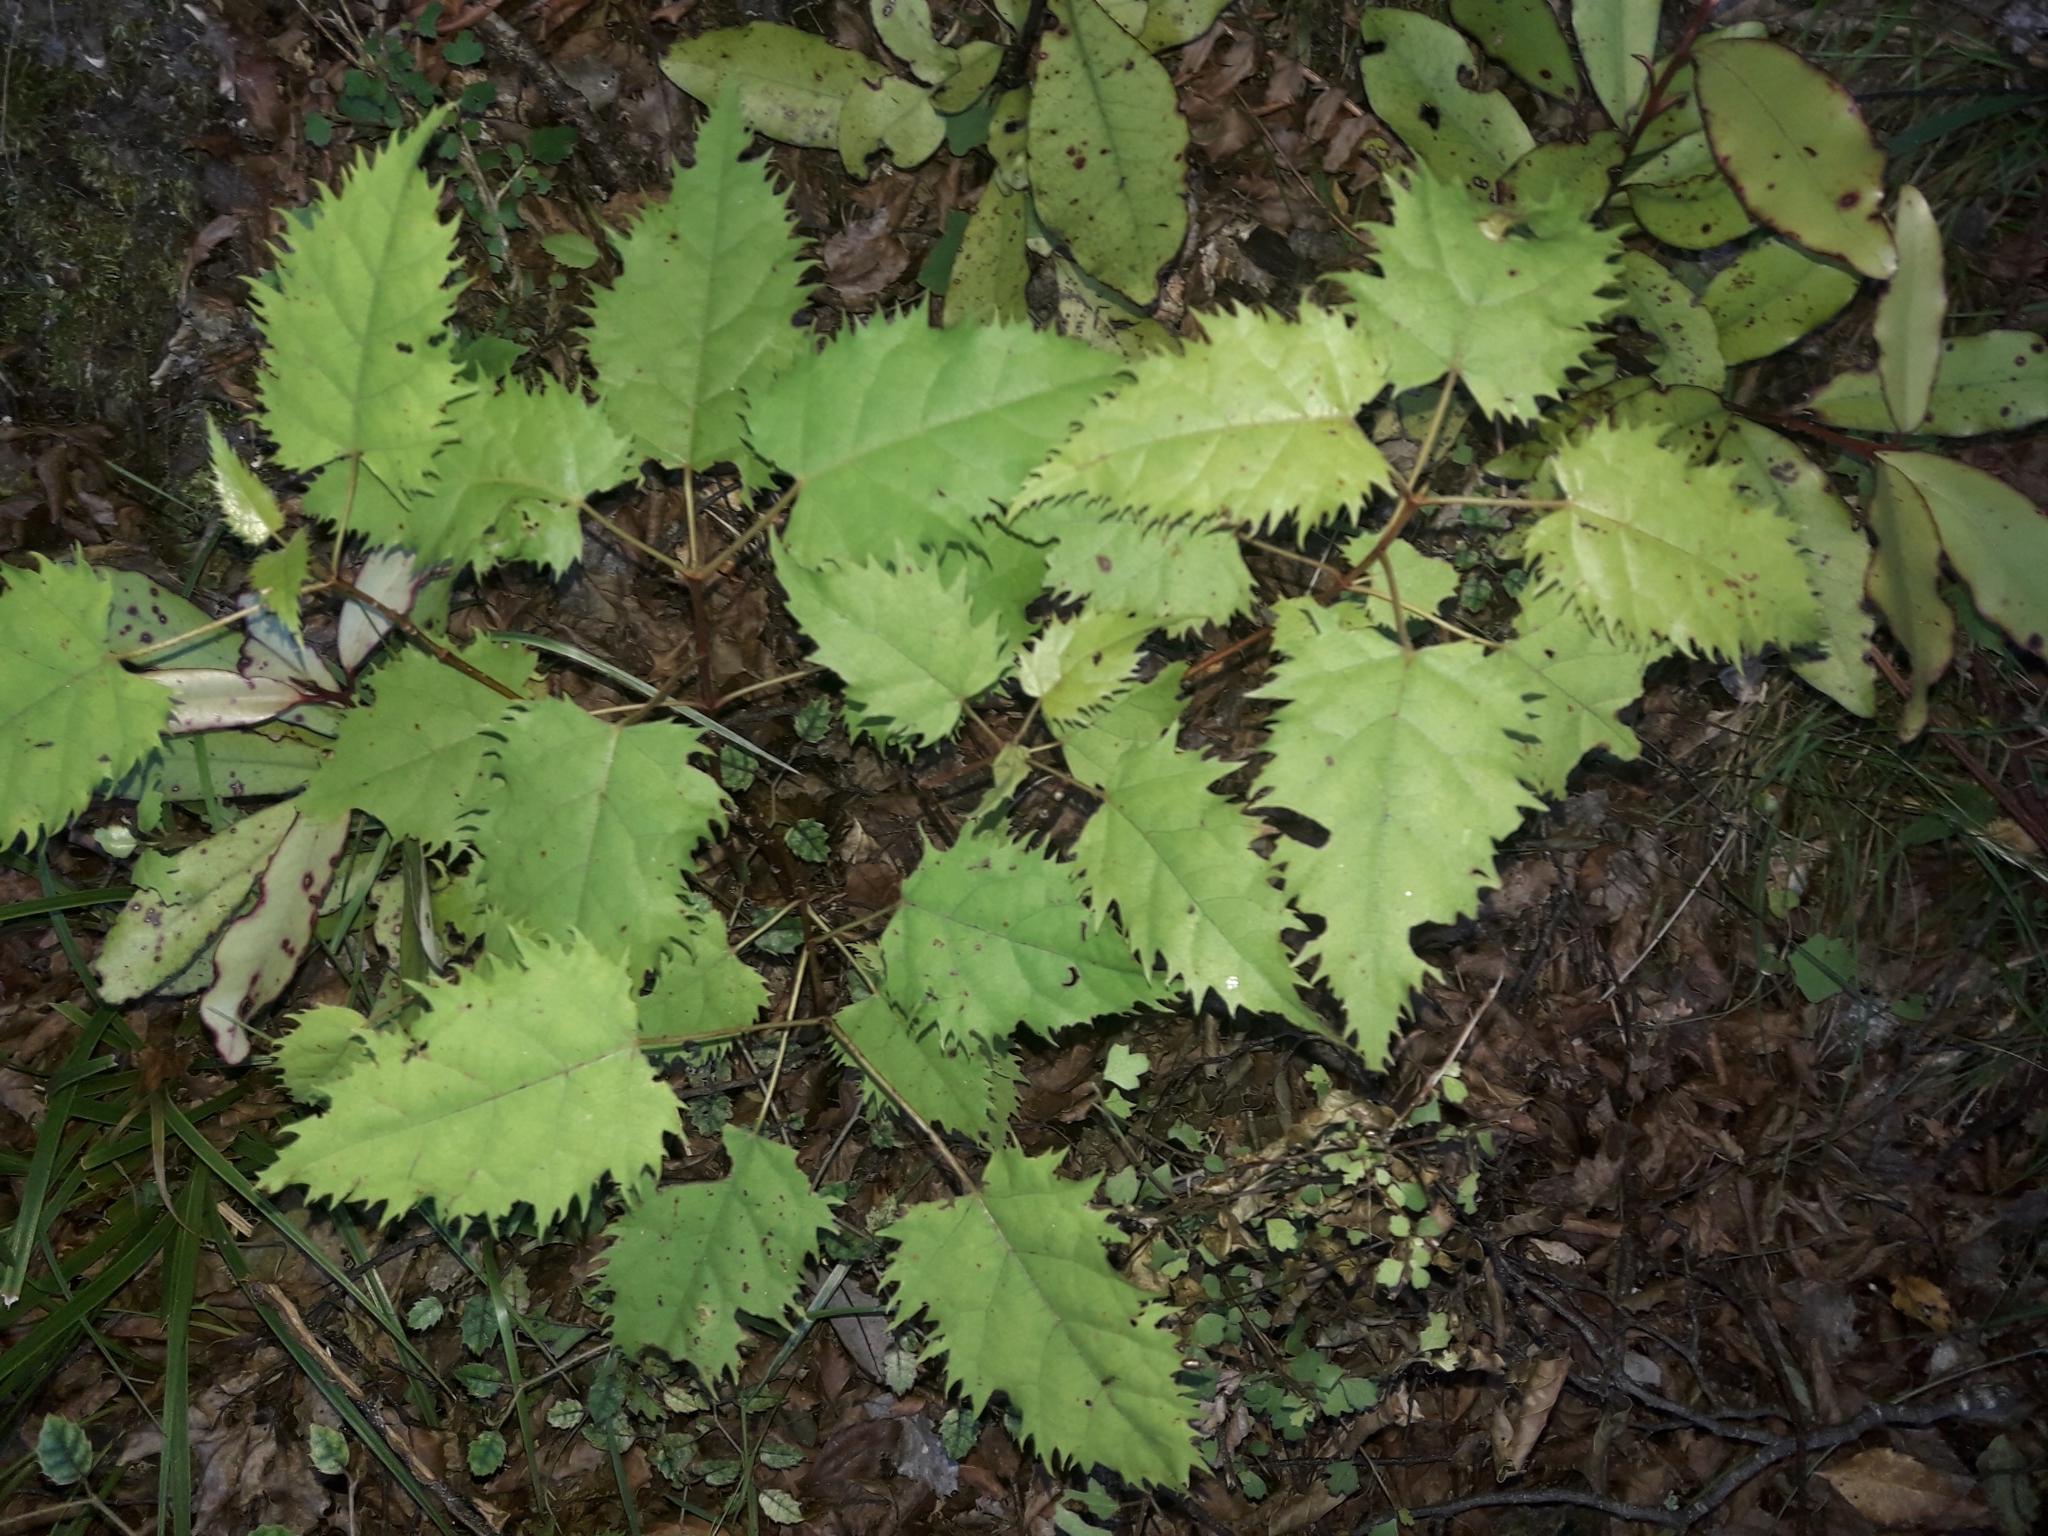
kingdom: Plantae
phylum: Tracheophyta
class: Magnoliopsida
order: Oxalidales
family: Elaeocarpaceae
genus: Aristotelia
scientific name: Aristotelia serrata
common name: New zealand wineberry
